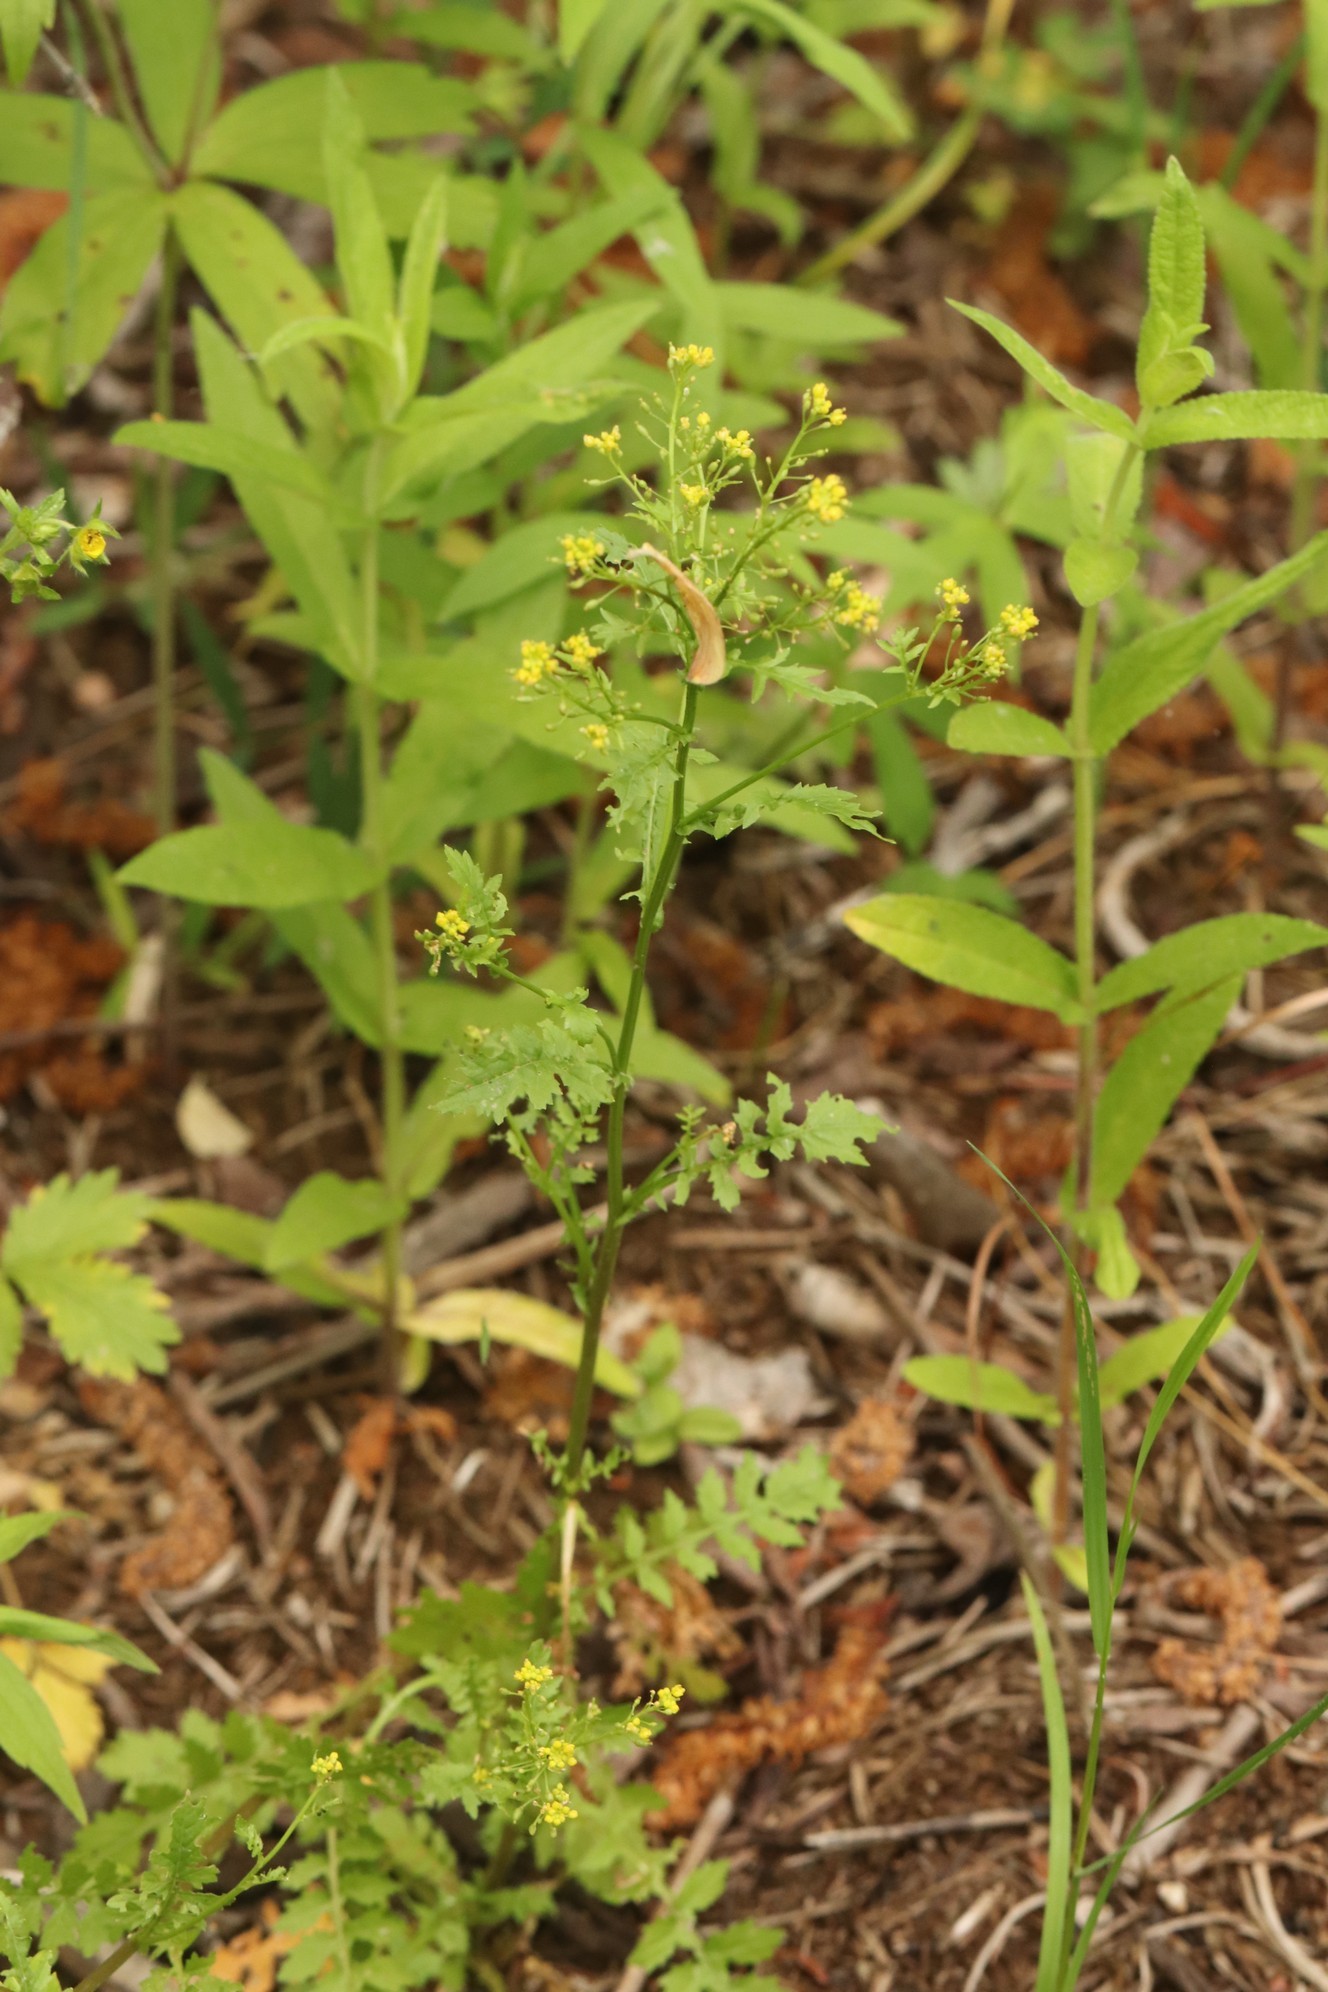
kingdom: Plantae
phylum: Tracheophyta
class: Magnoliopsida
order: Brassicales
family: Brassicaceae
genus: Rorippa
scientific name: Rorippa palustris
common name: Marsh yellow-cress
